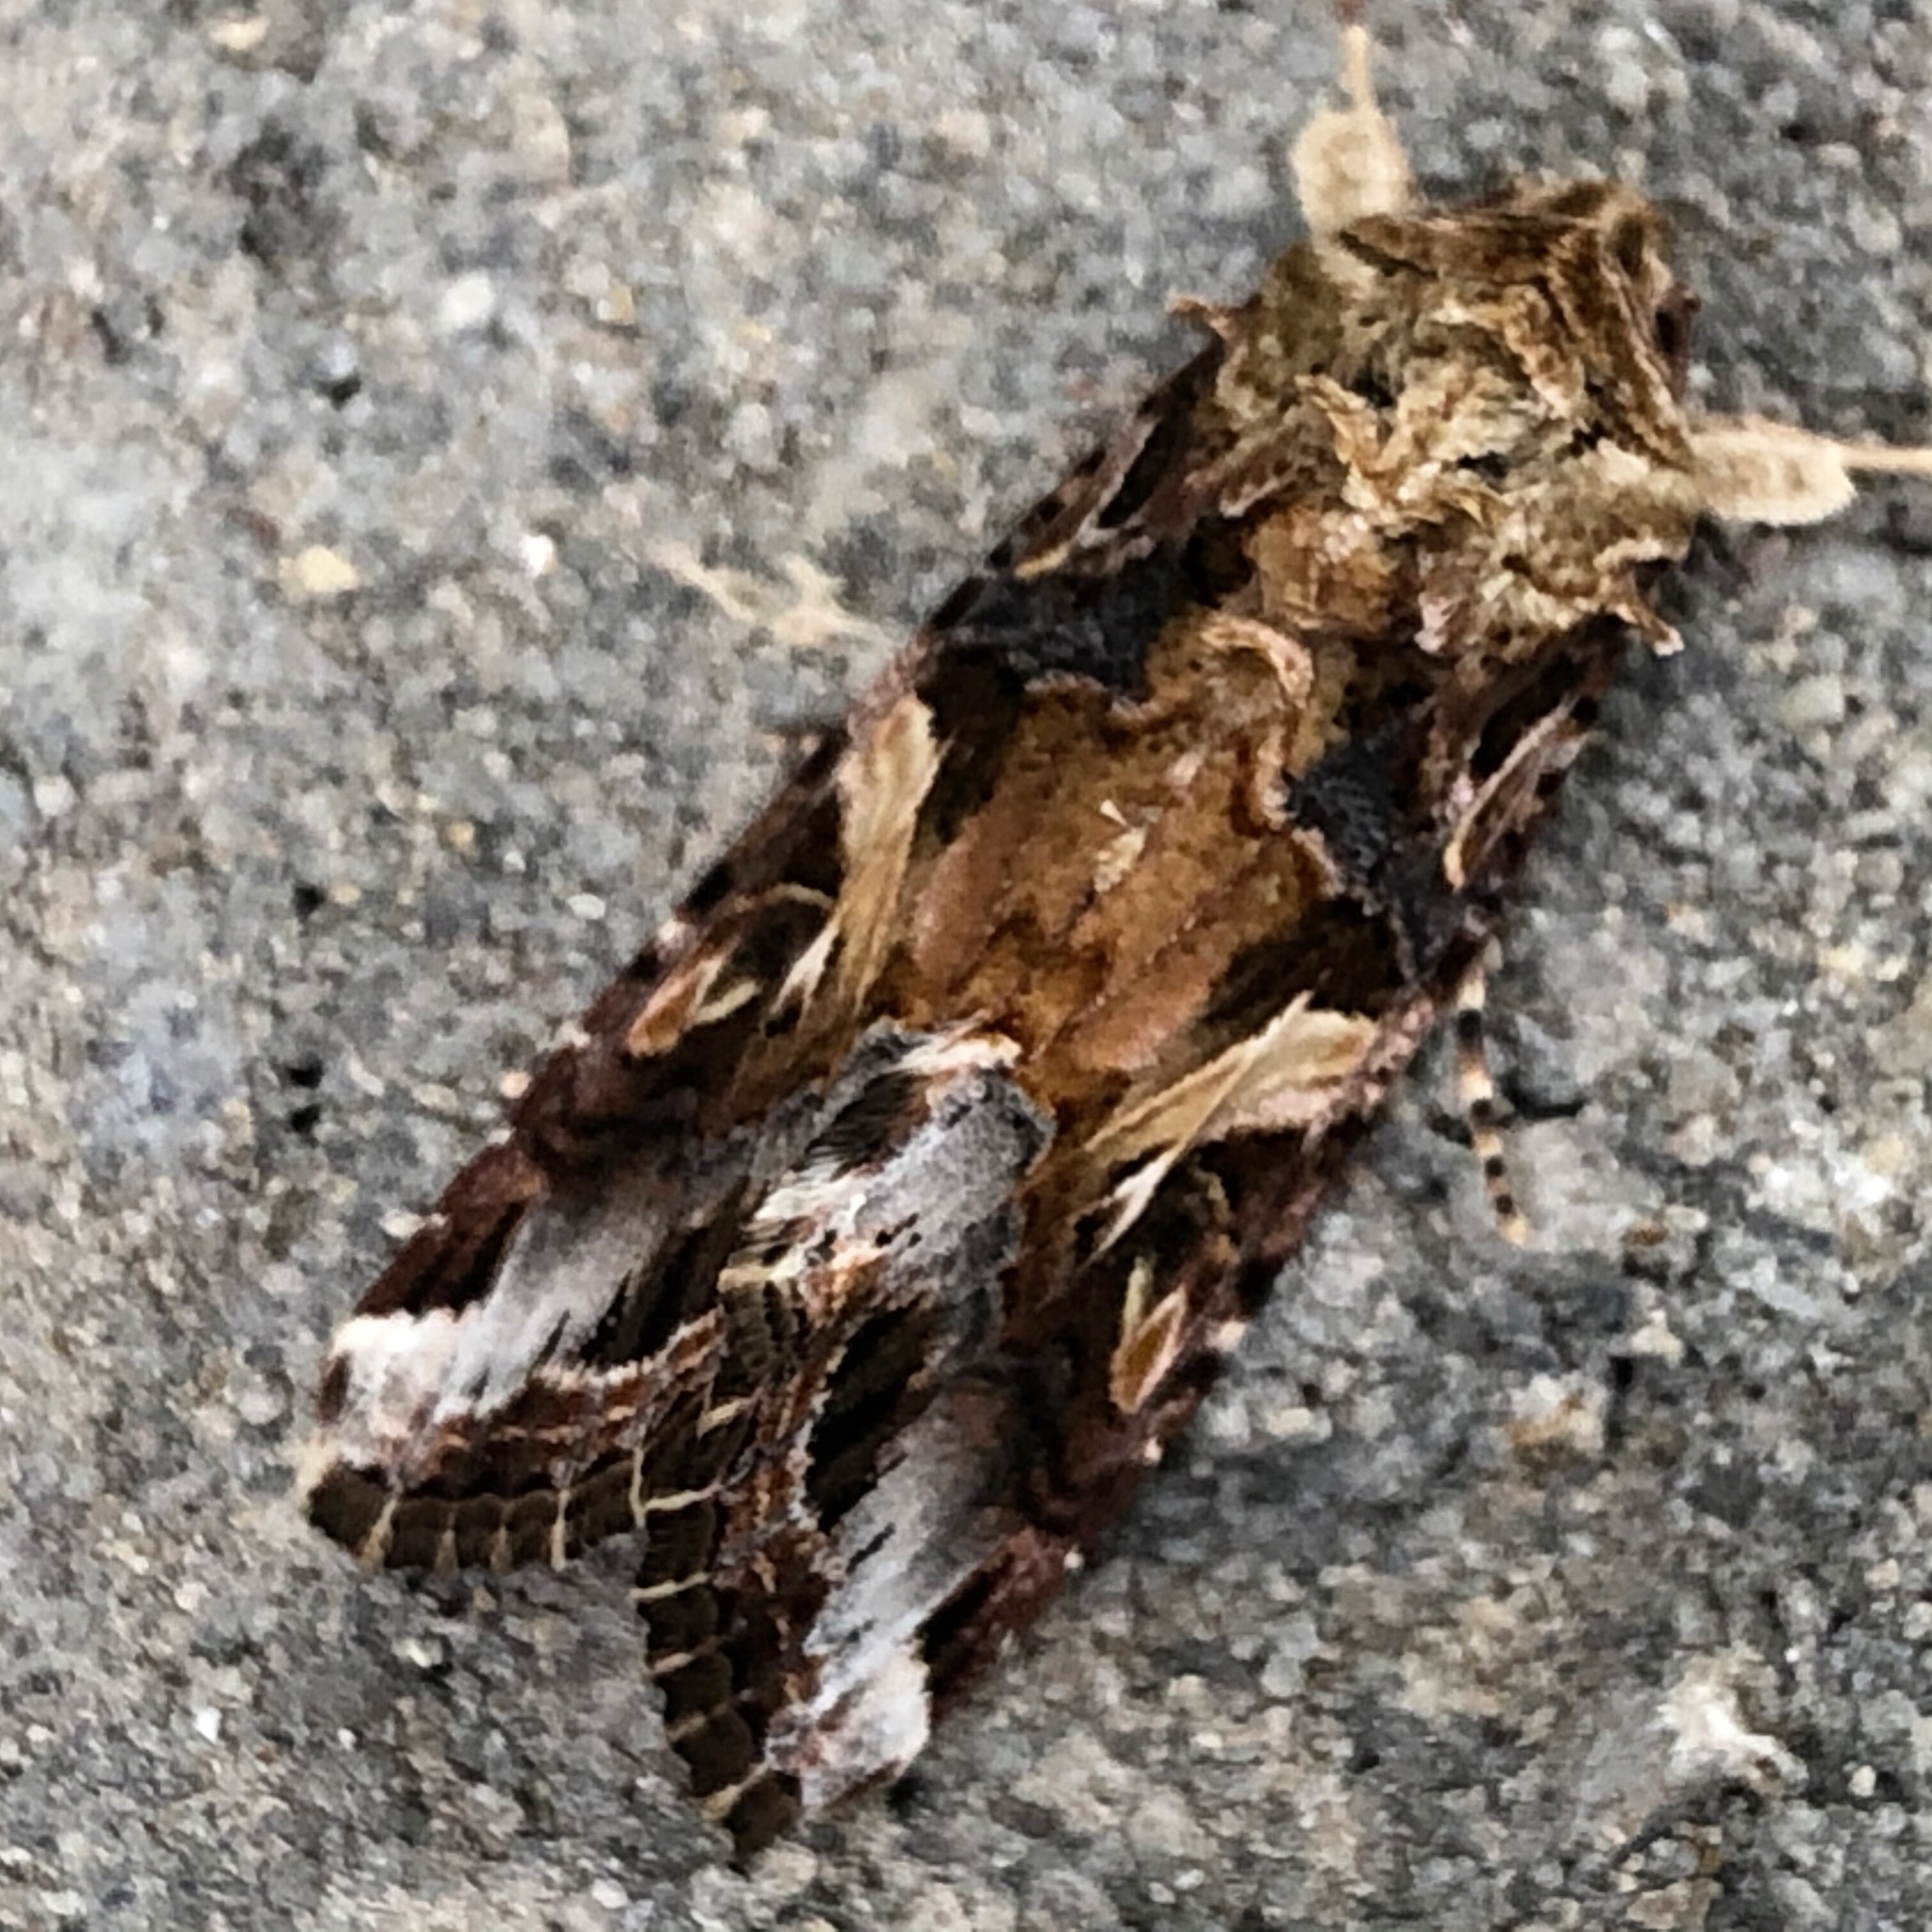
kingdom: Animalia
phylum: Arthropoda
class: Insecta
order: Lepidoptera
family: Noctuidae
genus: Spodoptera
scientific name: Spodoptera ornithogalli
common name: Yellow-striped armyworm
